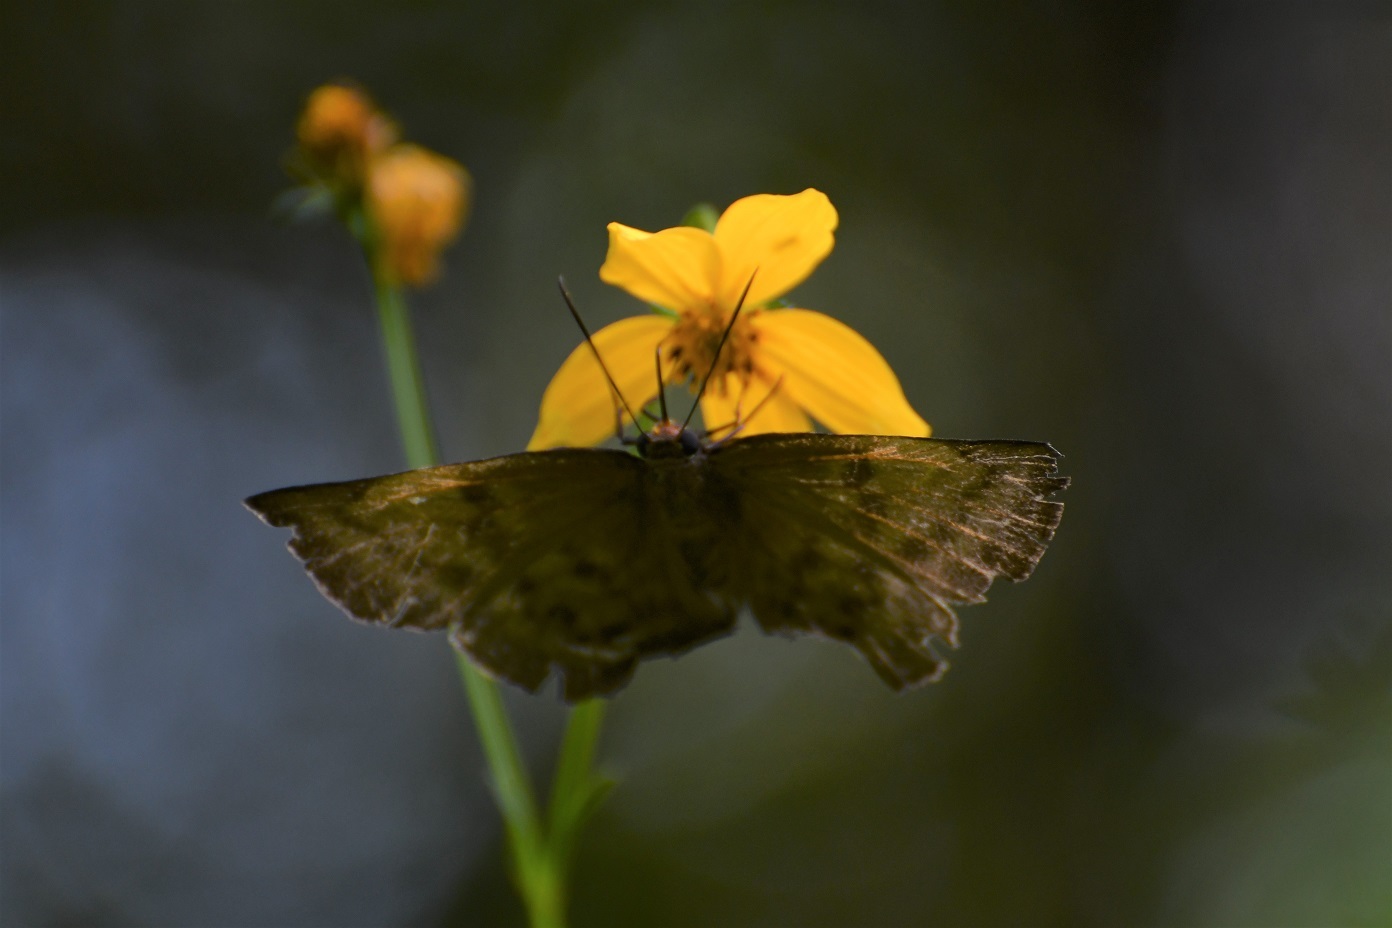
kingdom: Animalia
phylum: Arthropoda
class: Insecta
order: Lepidoptera
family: Hesperiidae
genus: Achlyodes
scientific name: Achlyodes pallida
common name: Pale sicklewing
